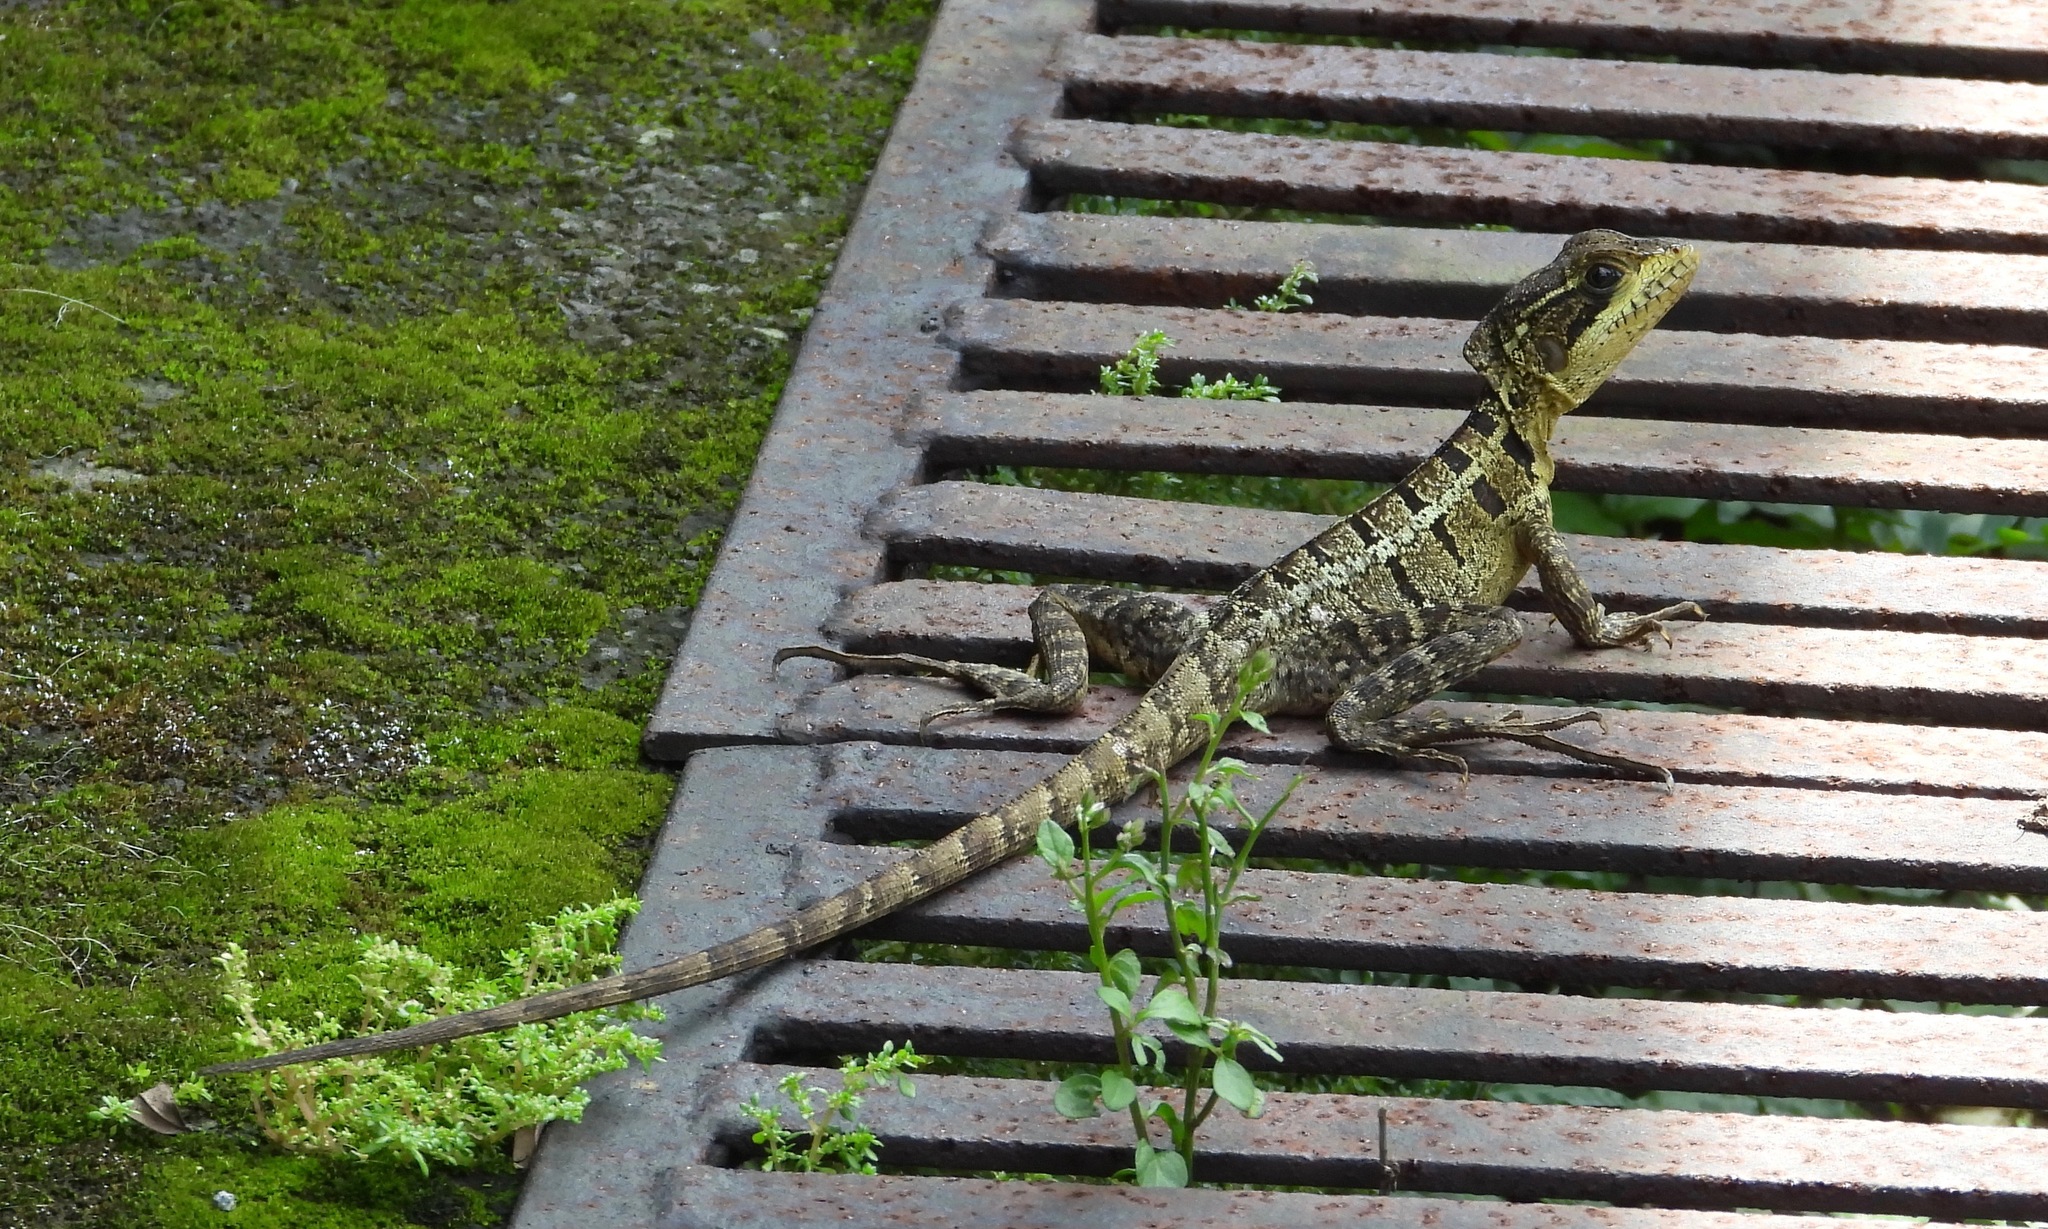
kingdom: Animalia
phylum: Chordata
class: Squamata
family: Corytophanidae
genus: Basiliscus
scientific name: Basiliscus vittatus
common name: Brown basilisk
